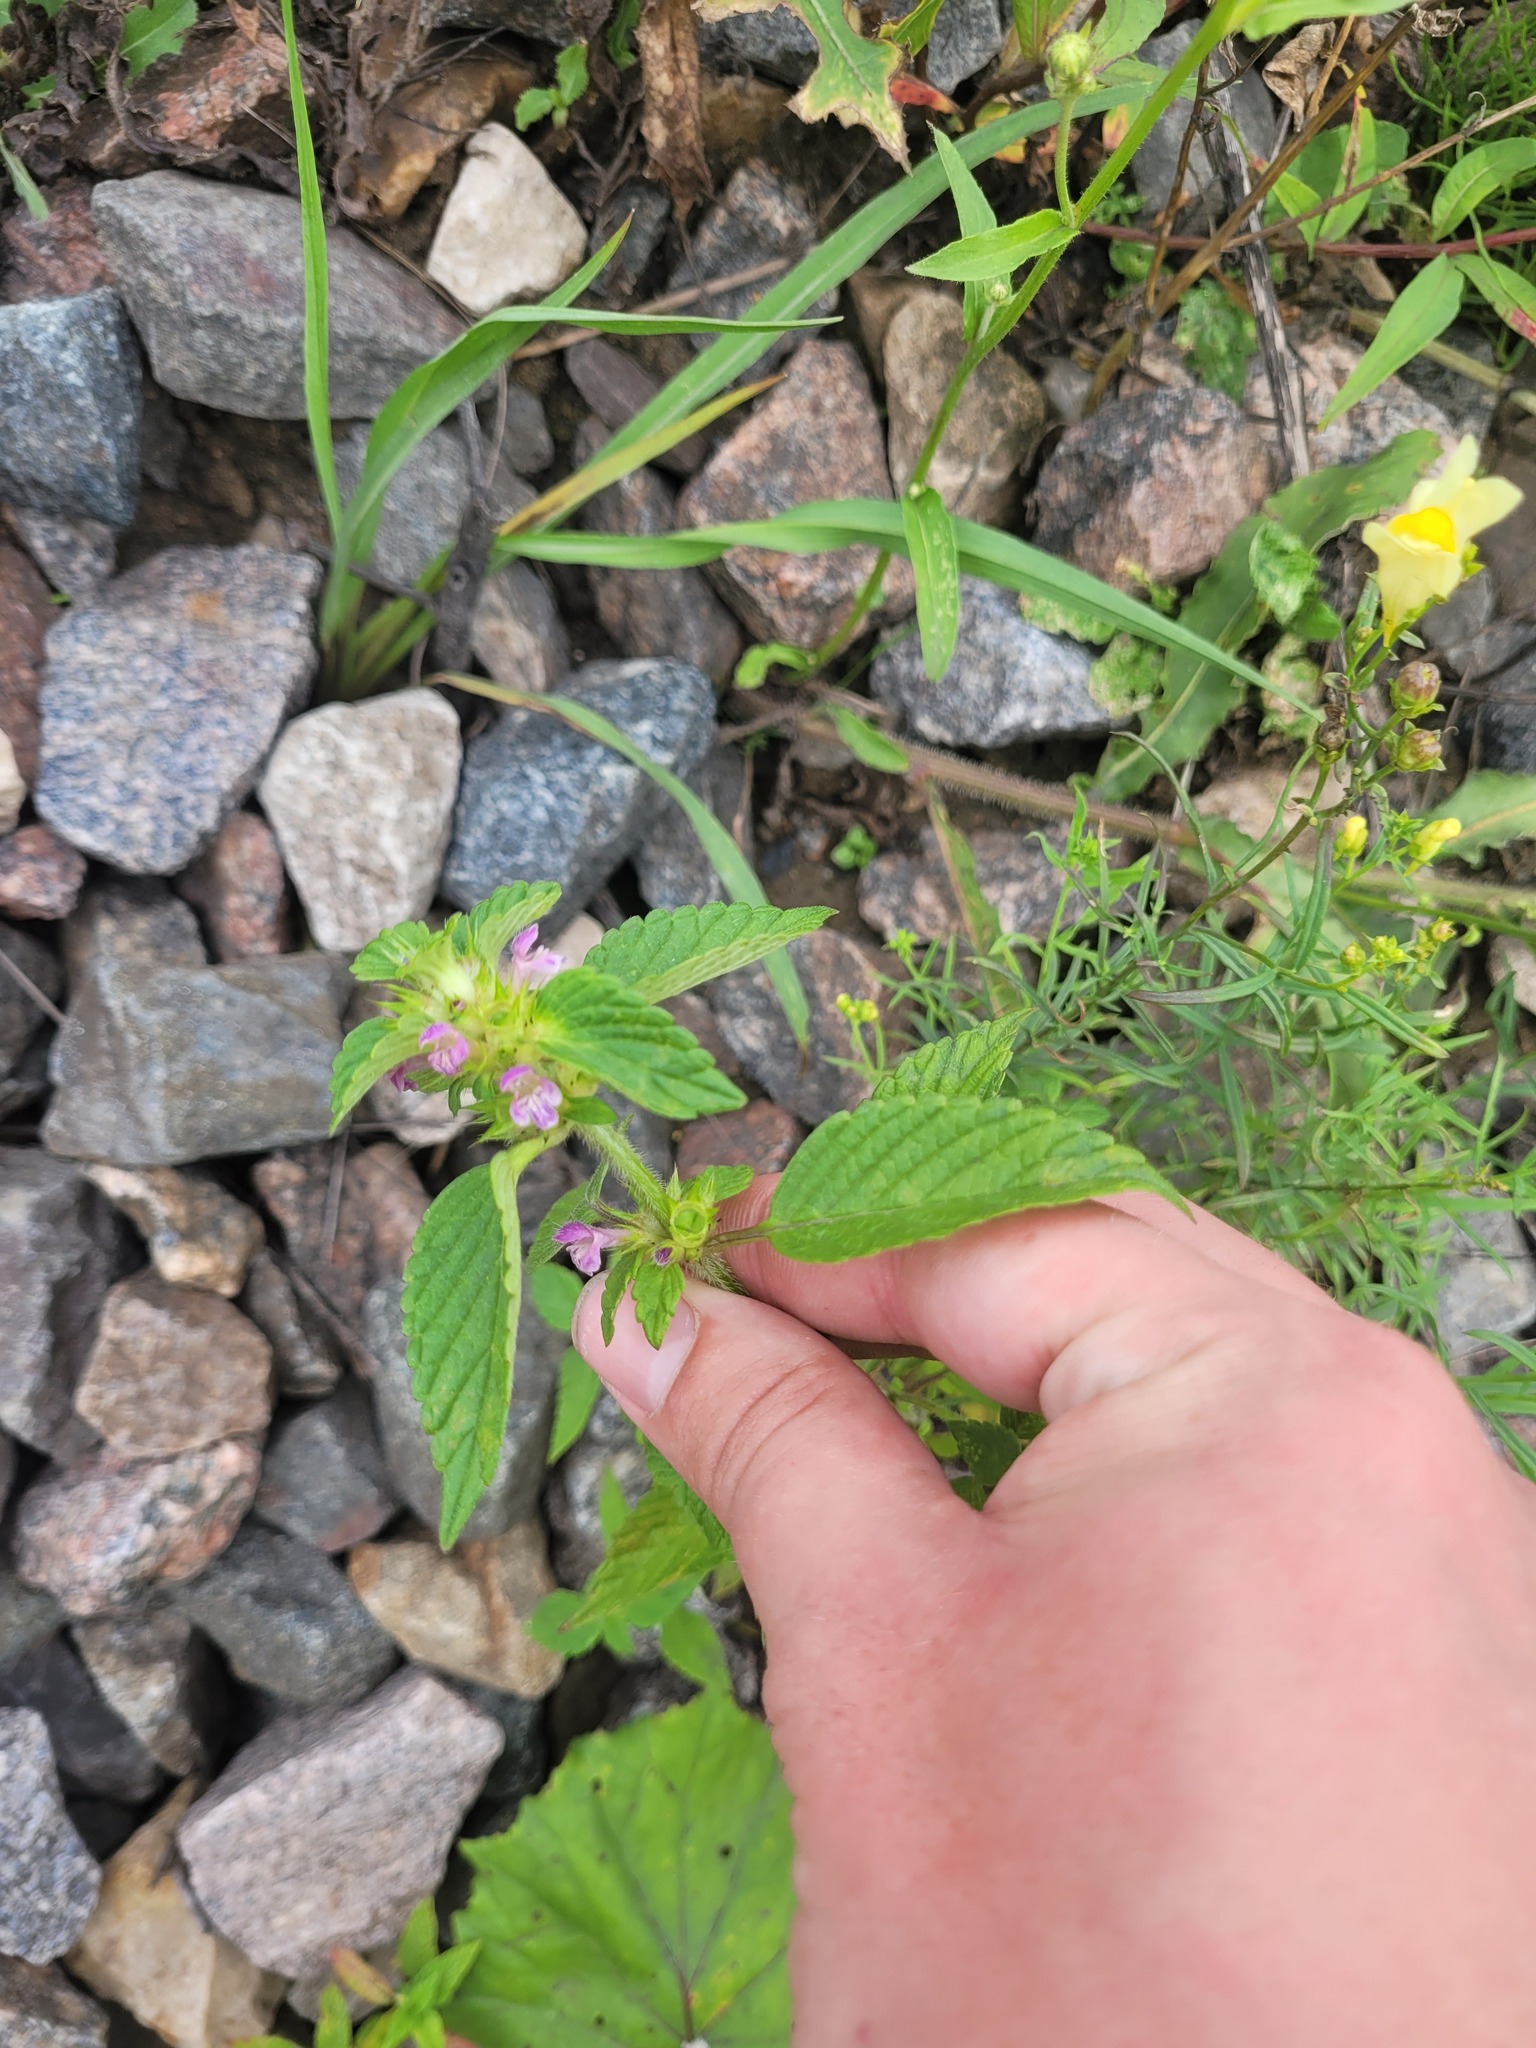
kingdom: Plantae
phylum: Tracheophyta
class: Magnoliopsida
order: Lamiales
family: Lamiaceae
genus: Galeopsis
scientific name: Galeopsis bifida
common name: Bifid hemp-nettle
